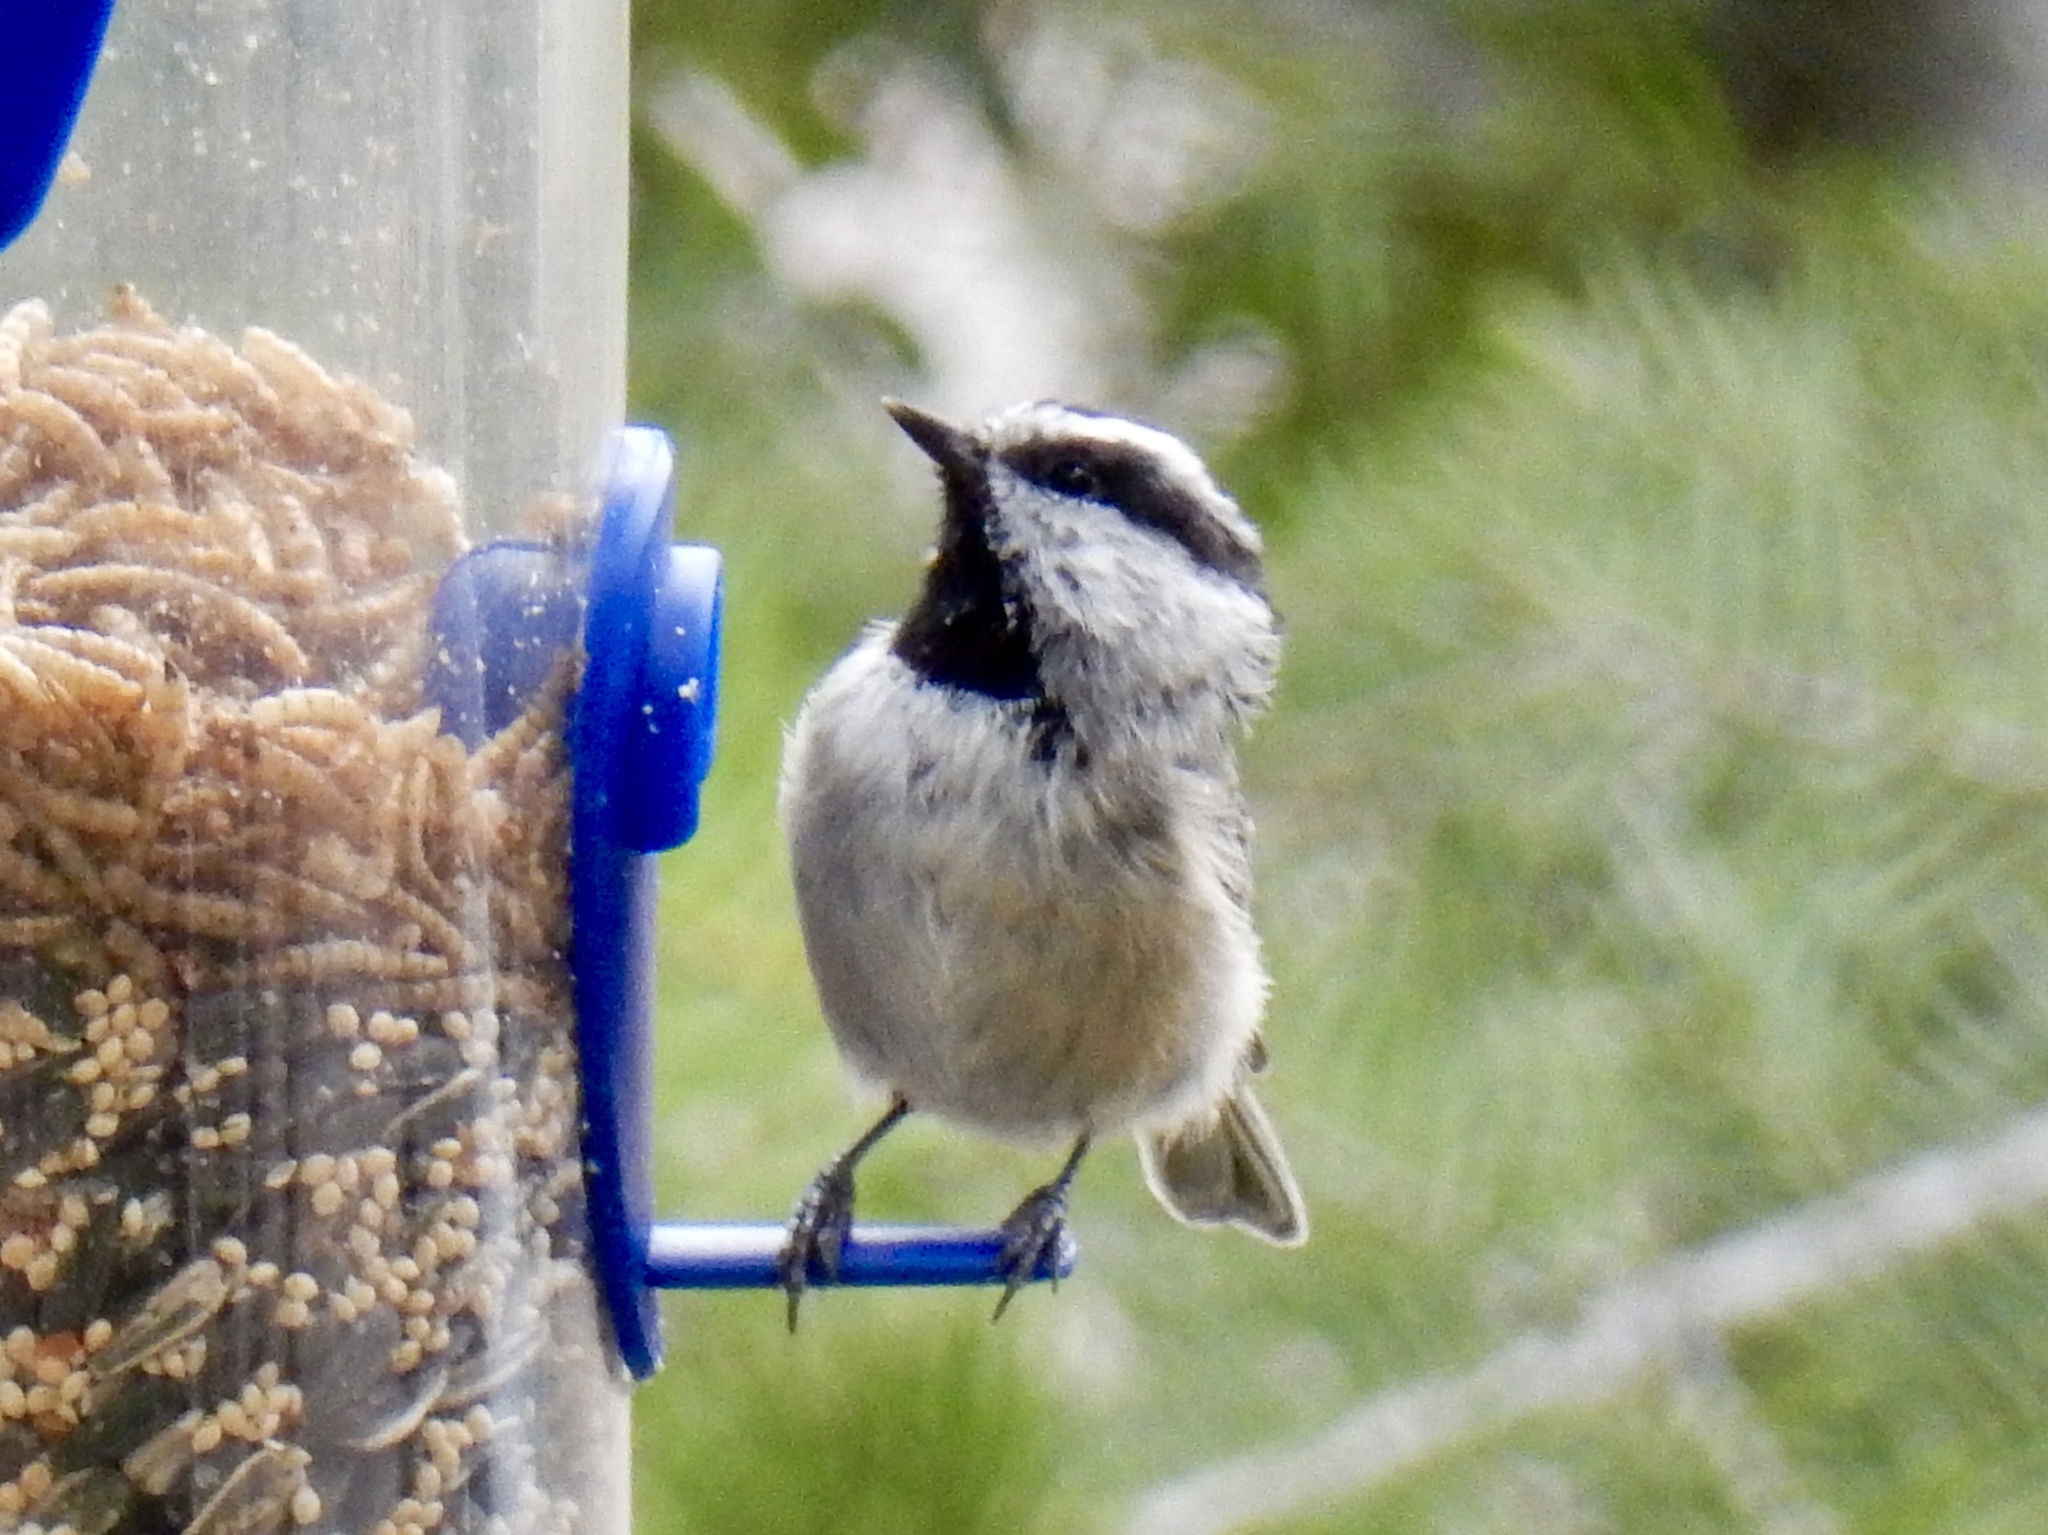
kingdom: Animalia
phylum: Chordata
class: Aves
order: Passeriformes
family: Paridae
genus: Poecile
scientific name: Poecile gambeli
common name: Mountain chickadee
